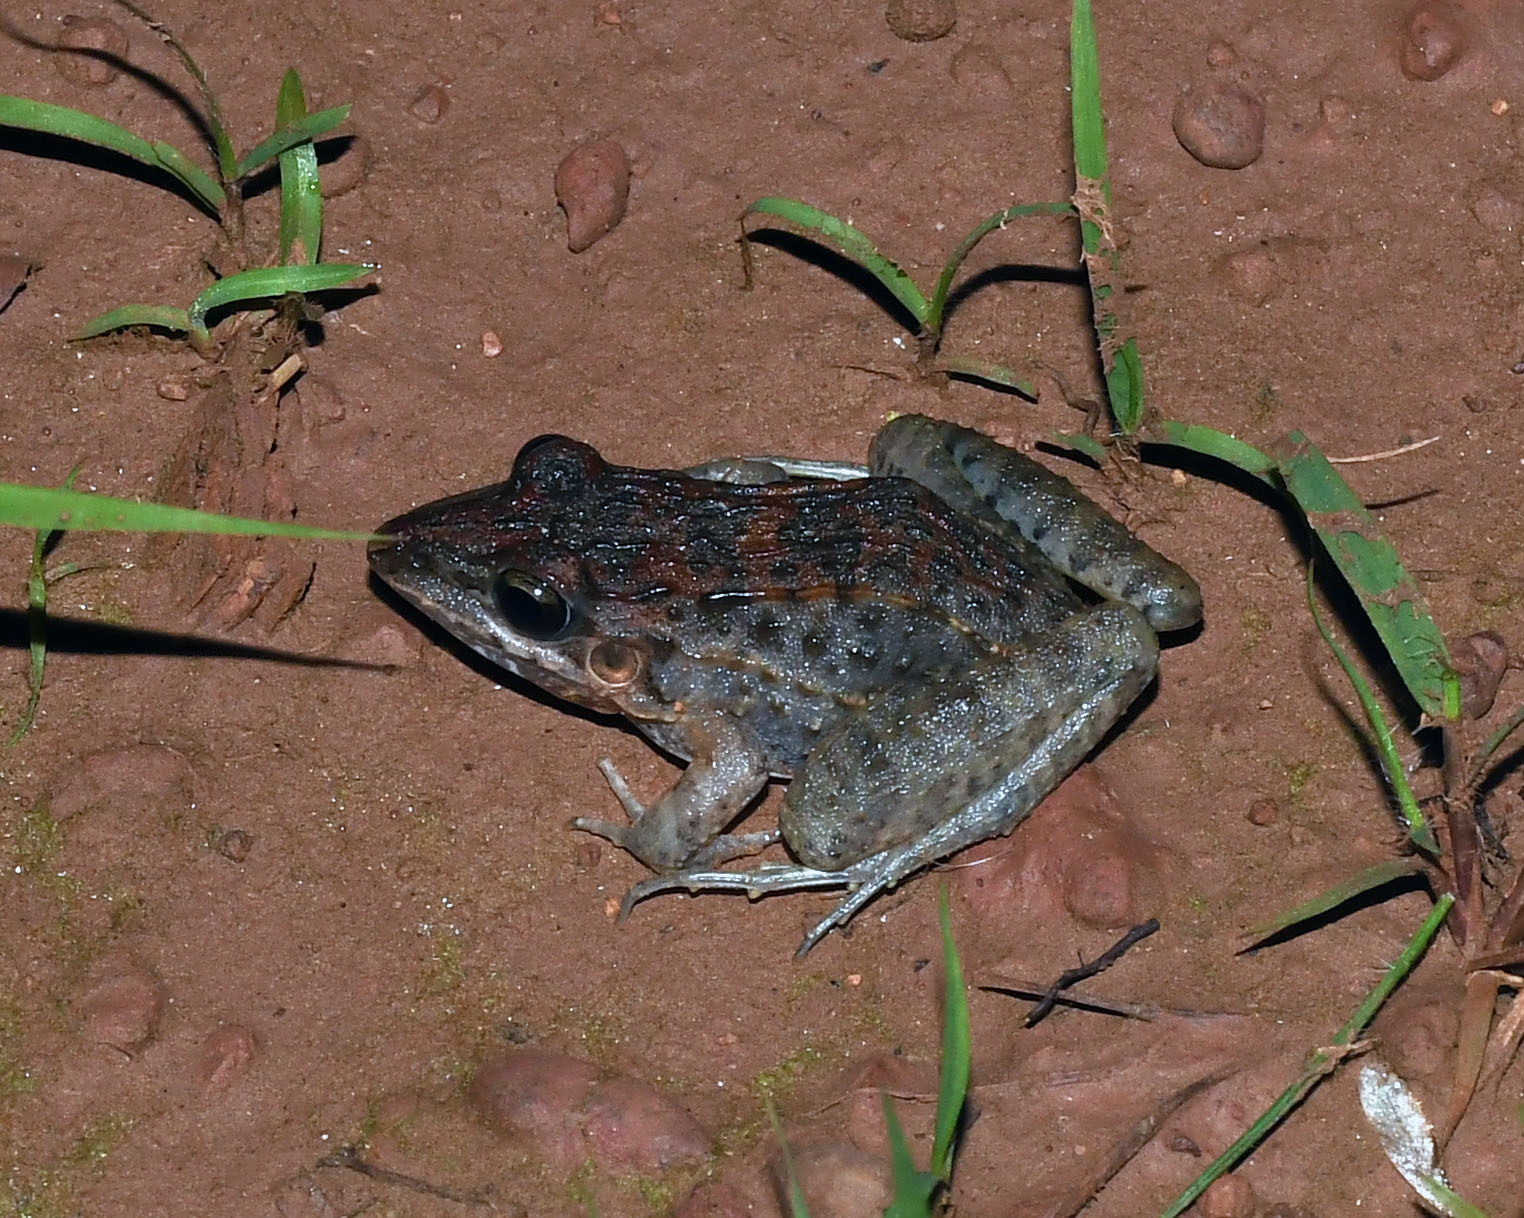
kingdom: Animalia
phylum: Chordata
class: Amphibia
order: Anura
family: Leptodactylidae
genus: Leptodactylus
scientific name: Leptodactylus fuscus
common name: Rufous frog
